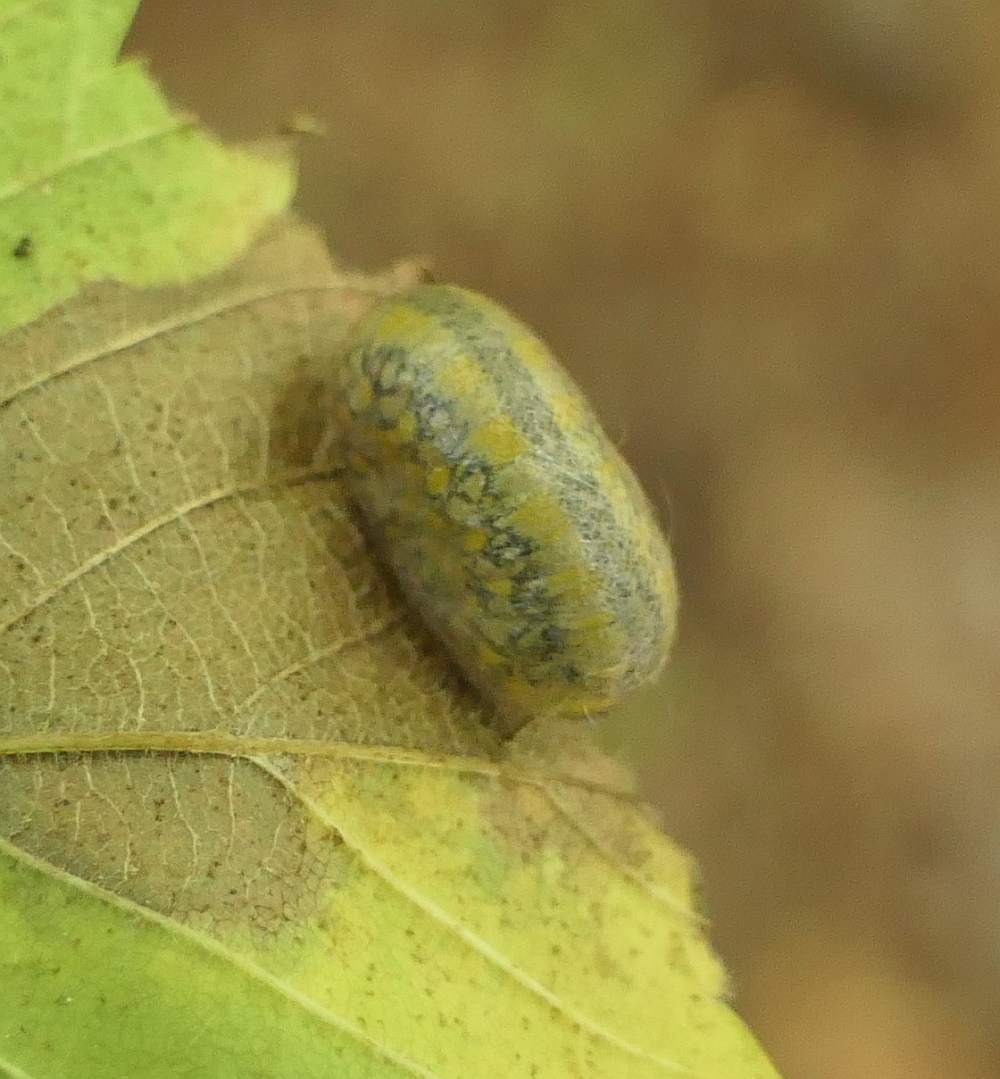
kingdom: Animalia
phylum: Arthropoda
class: Insecta
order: Hymenoptera
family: Diprionidae
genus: Diprion
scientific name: Diprion similis
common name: Pine sawfly
